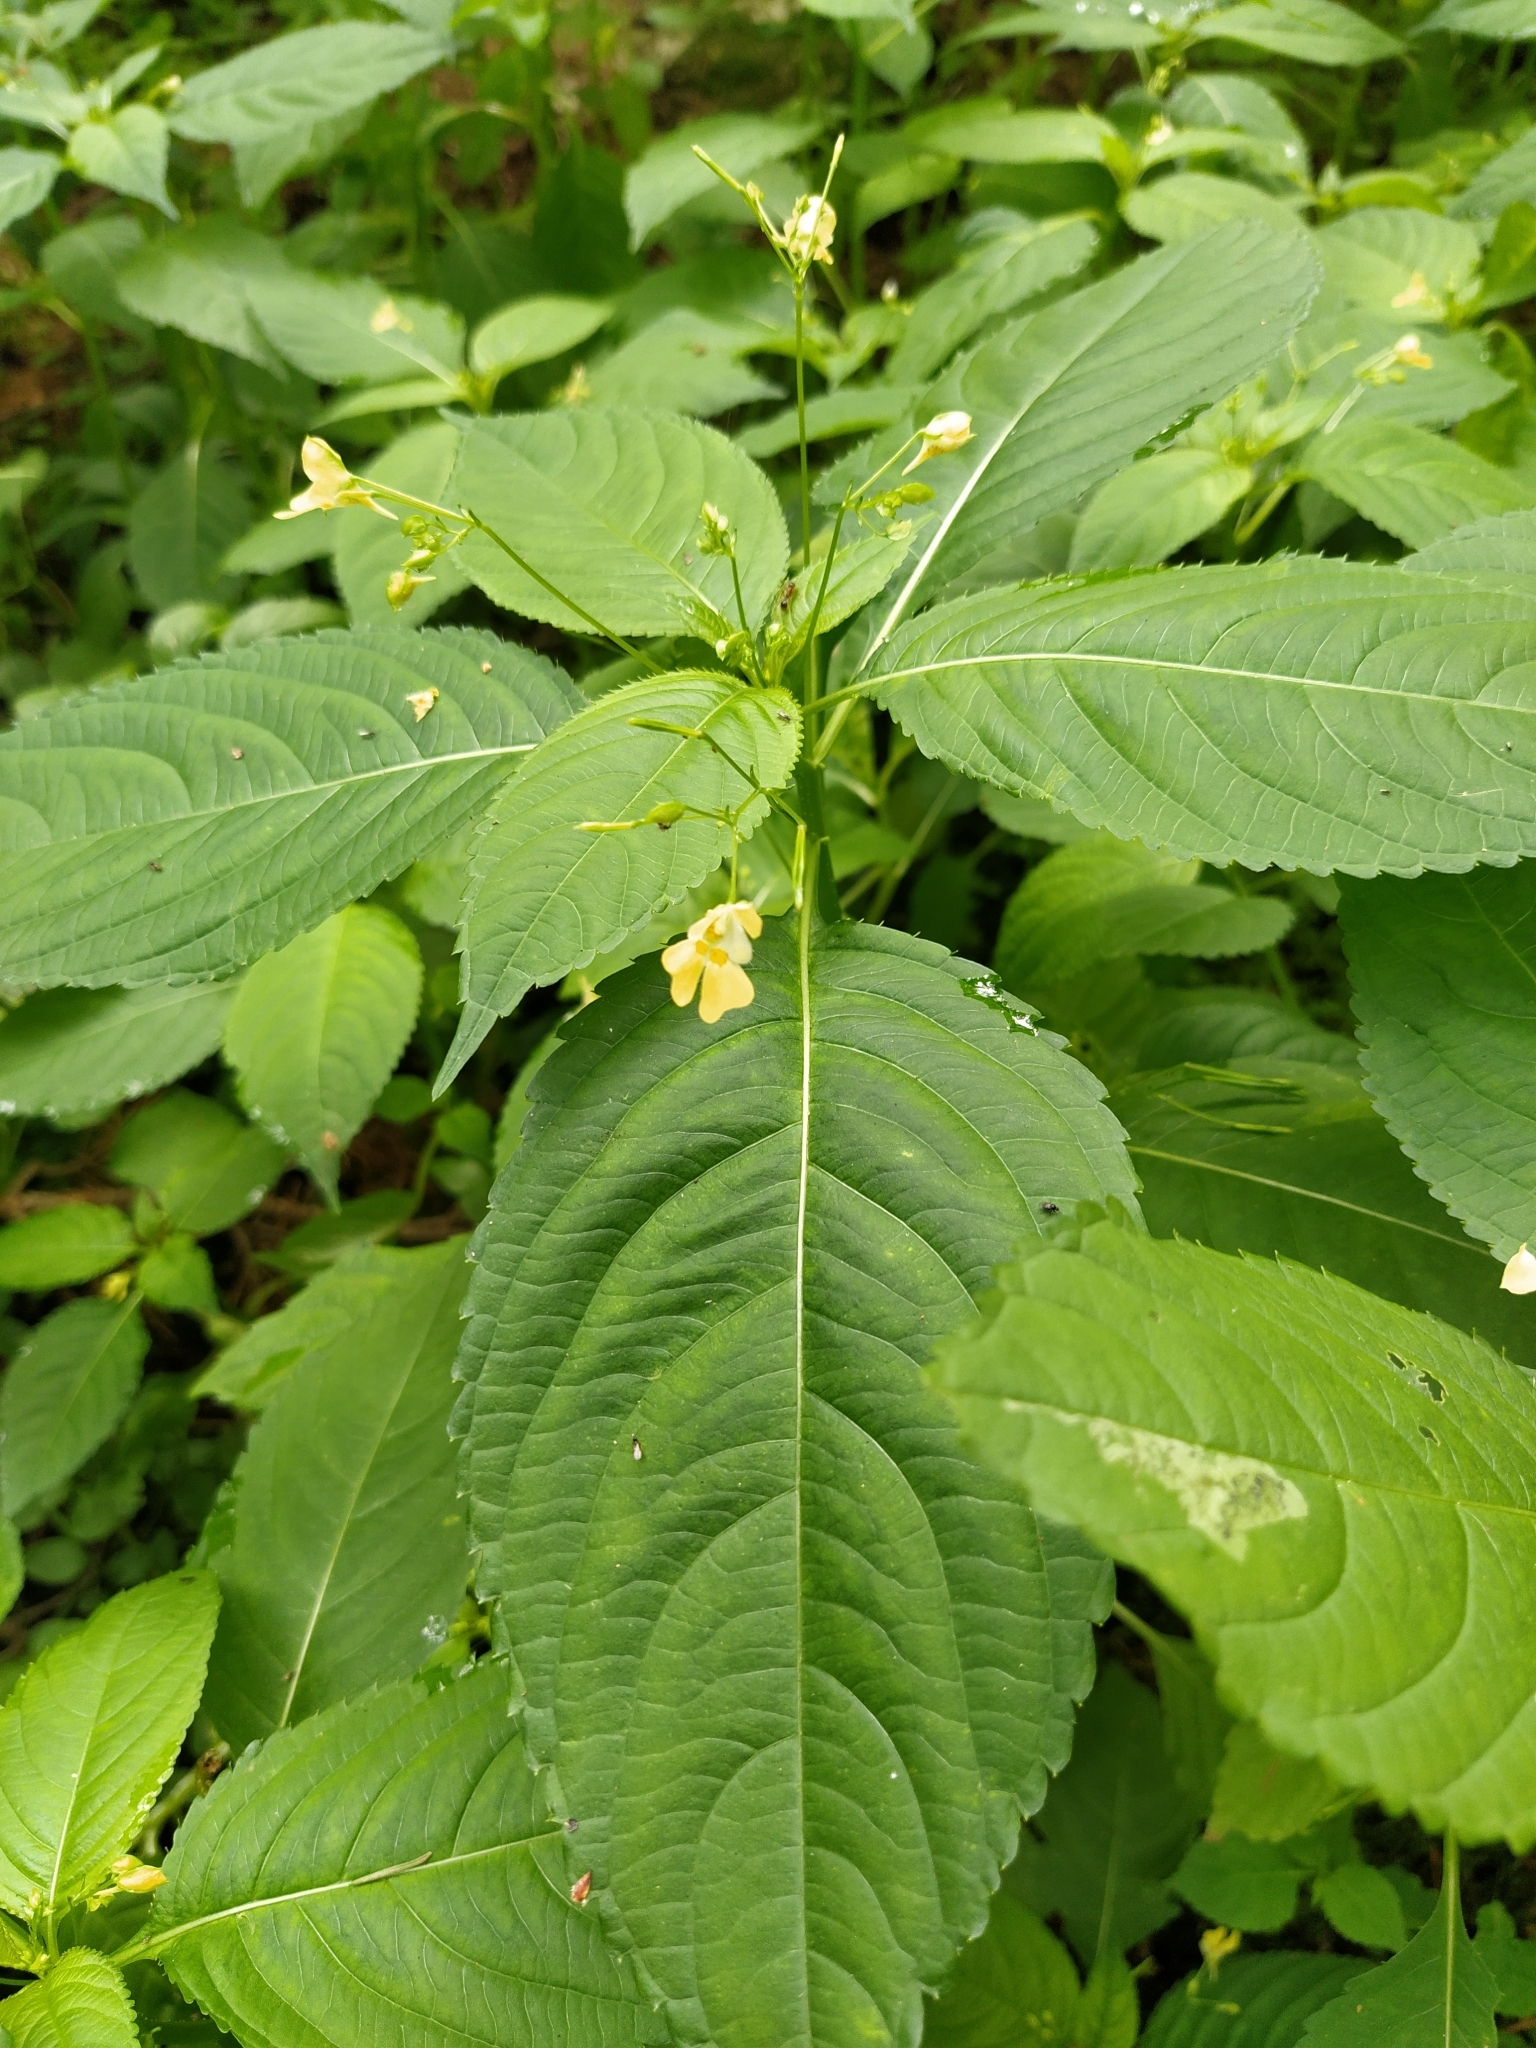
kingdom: Plantae
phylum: Tracheophyta
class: Magnoliopsida
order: Ericales
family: Balsaminaceae
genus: Impatiens
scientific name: Impatiens parviflora
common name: Small balsam
